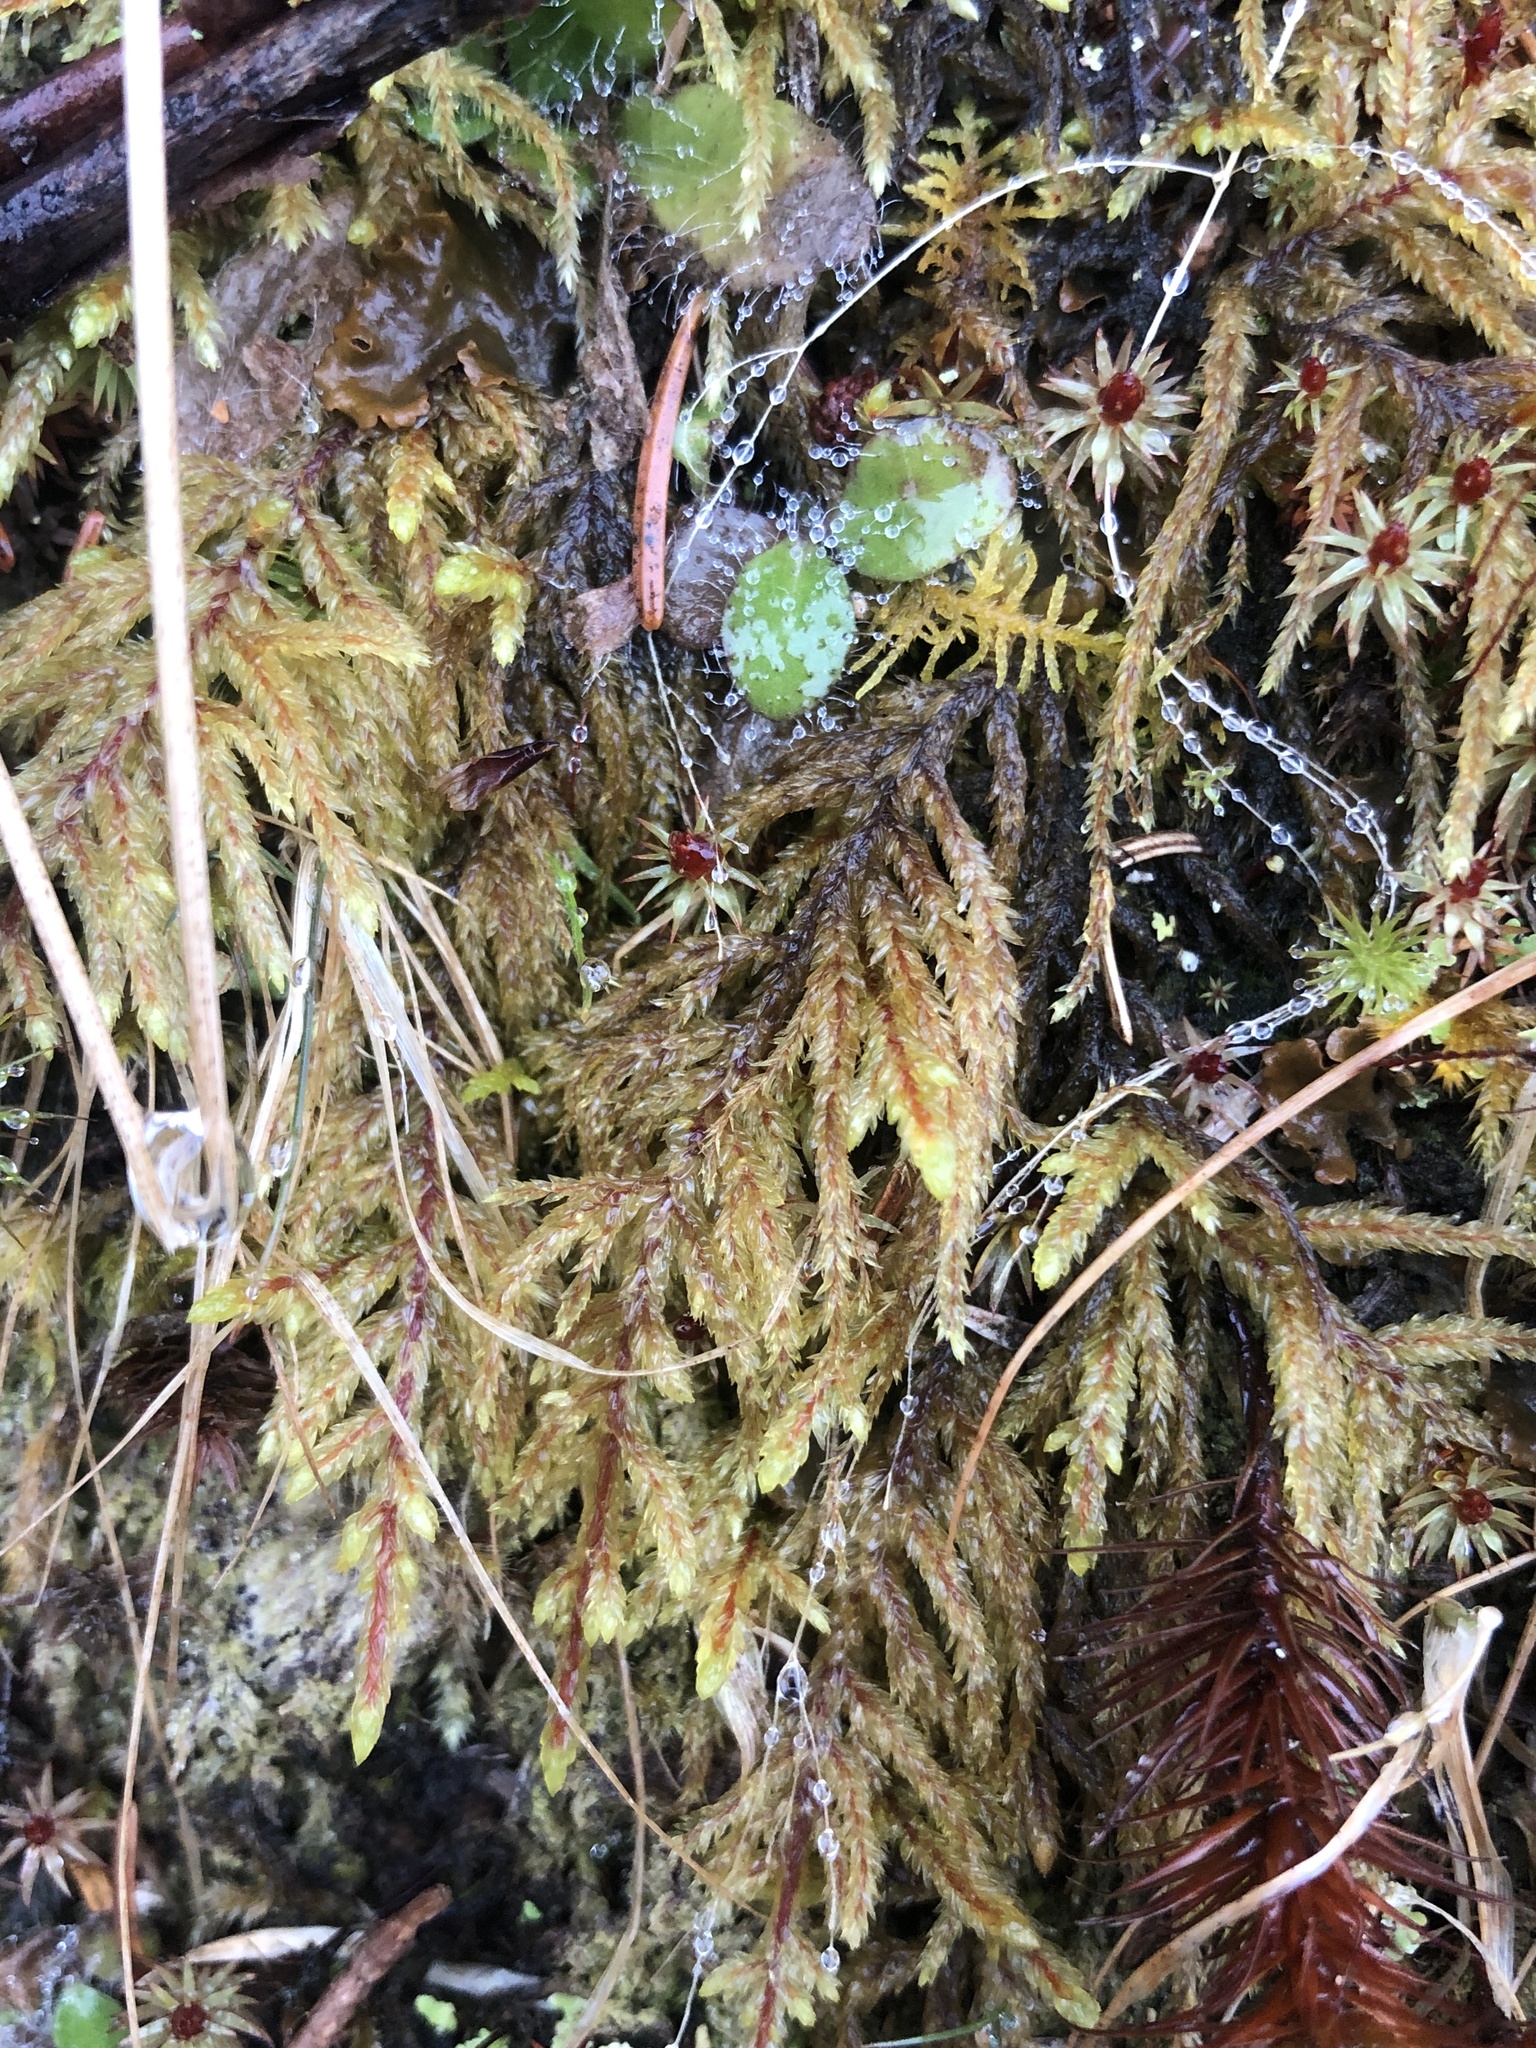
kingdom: Plantae
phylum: Bryophyta
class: Bryopsida
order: Hypnales
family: Hylocomiaceae
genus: Pleurozium
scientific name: Pleurozium schreberi
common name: Red-stemmed feather moss
